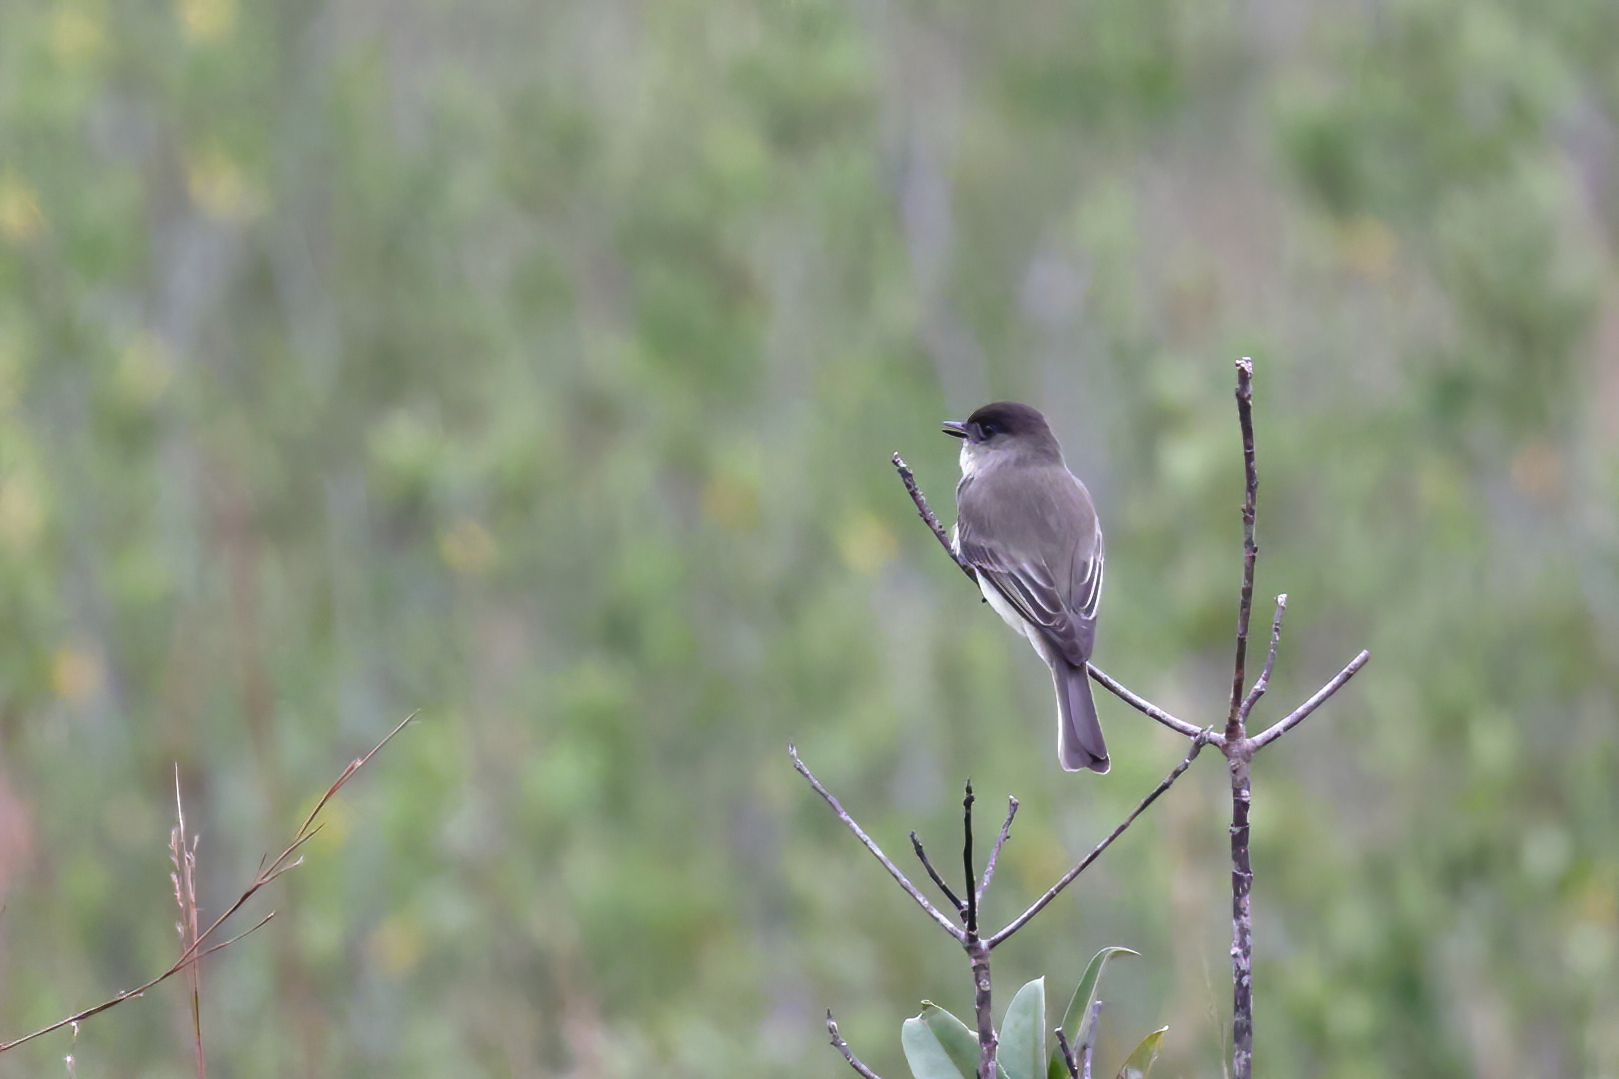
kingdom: Animalia
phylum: Chordata
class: Aves
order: Passeriformes
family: Tyrannidae
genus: Sayornis
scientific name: Sayornis phoebe
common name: Eastern phoebe
